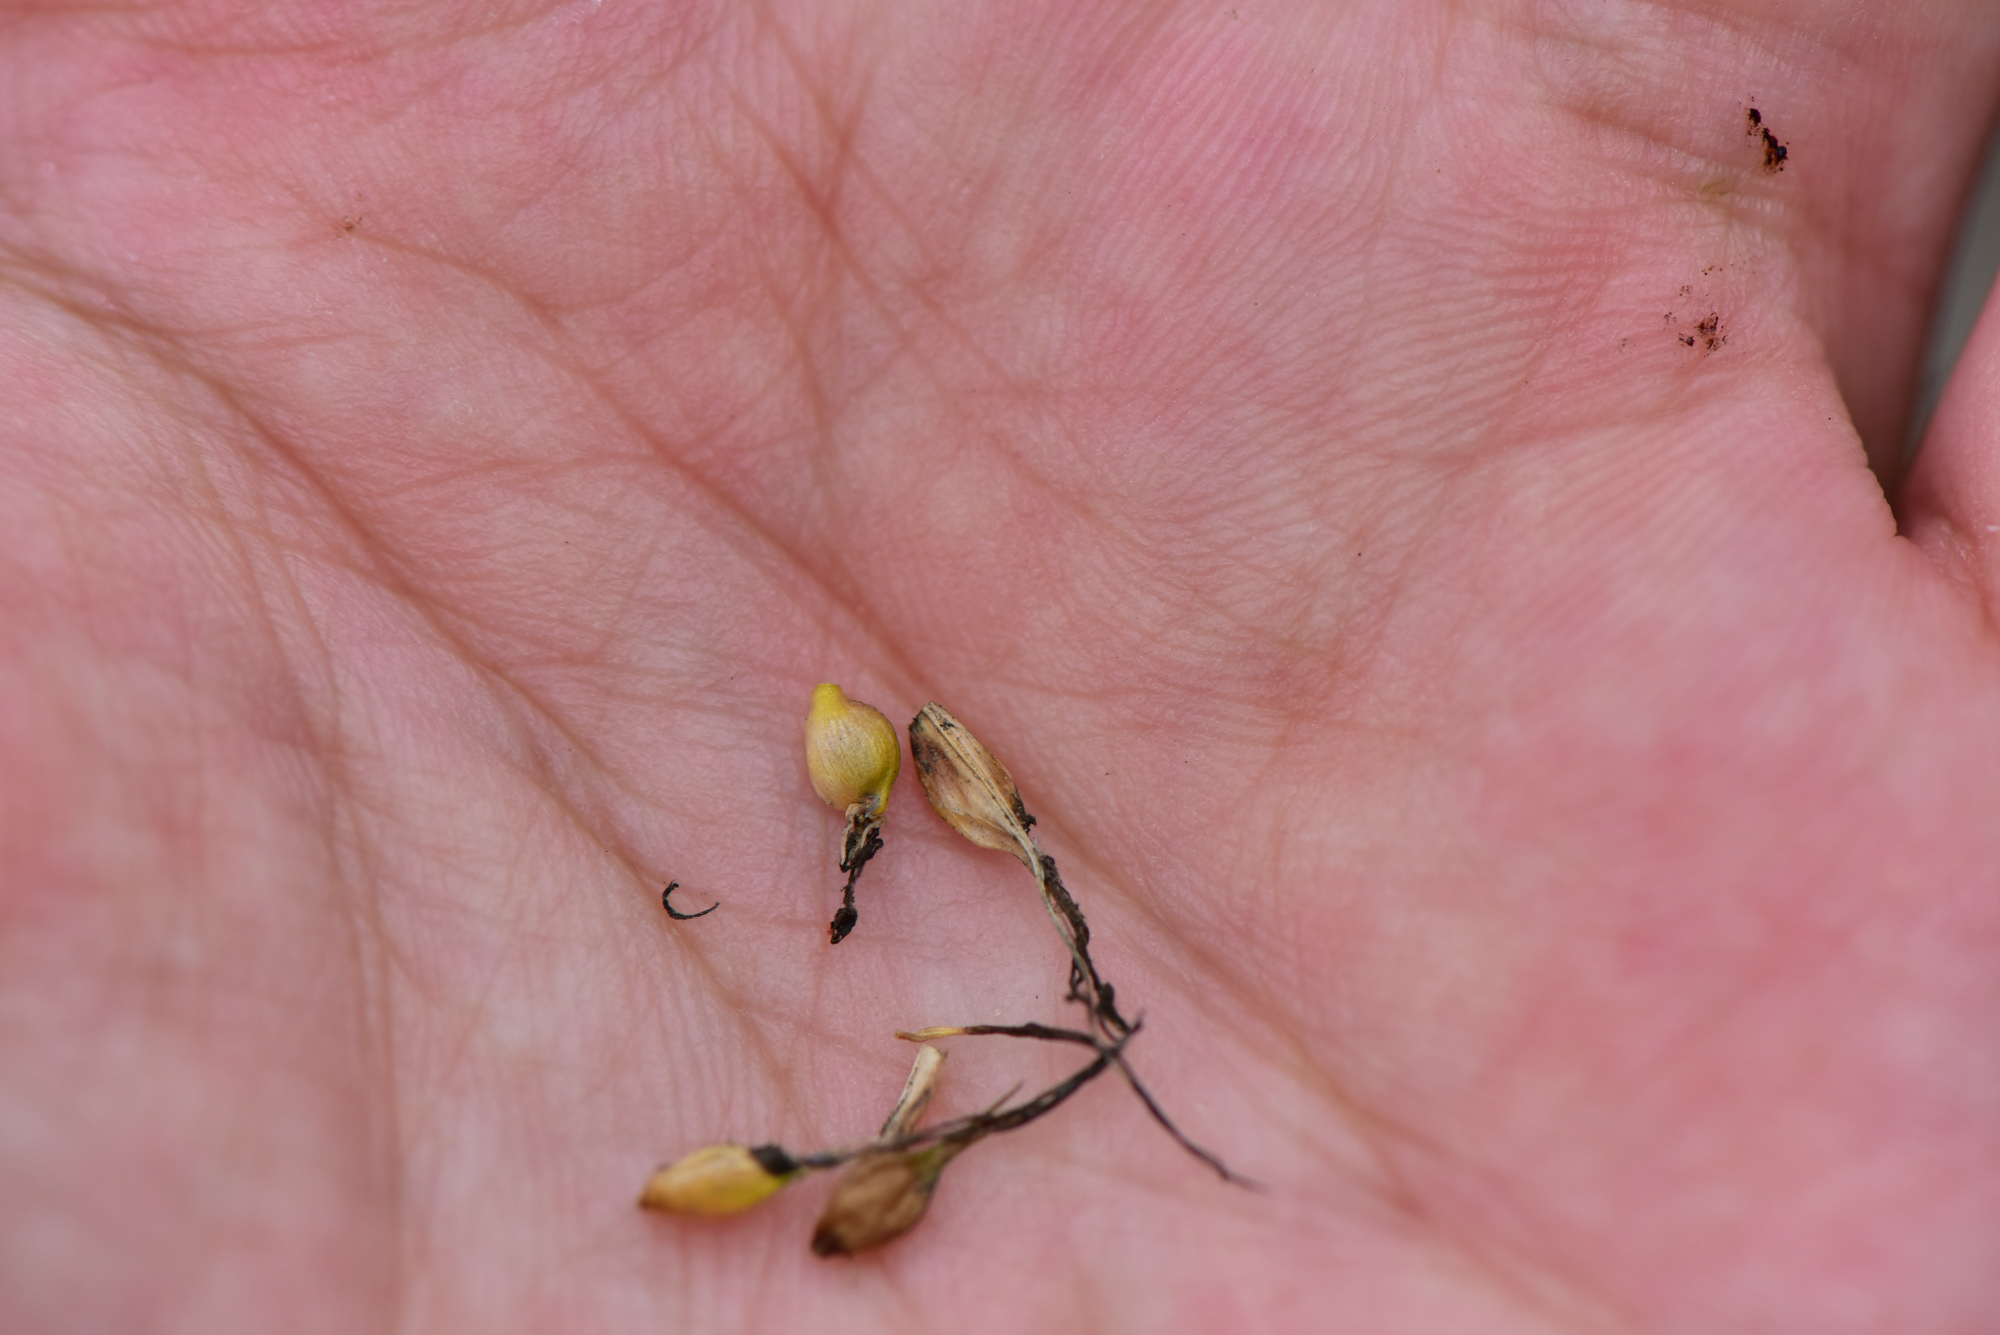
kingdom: Plantae
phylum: Tracheophyta
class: Liliopsida
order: Poales
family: Cyperaceae
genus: Carex
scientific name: Carex wahuensis
